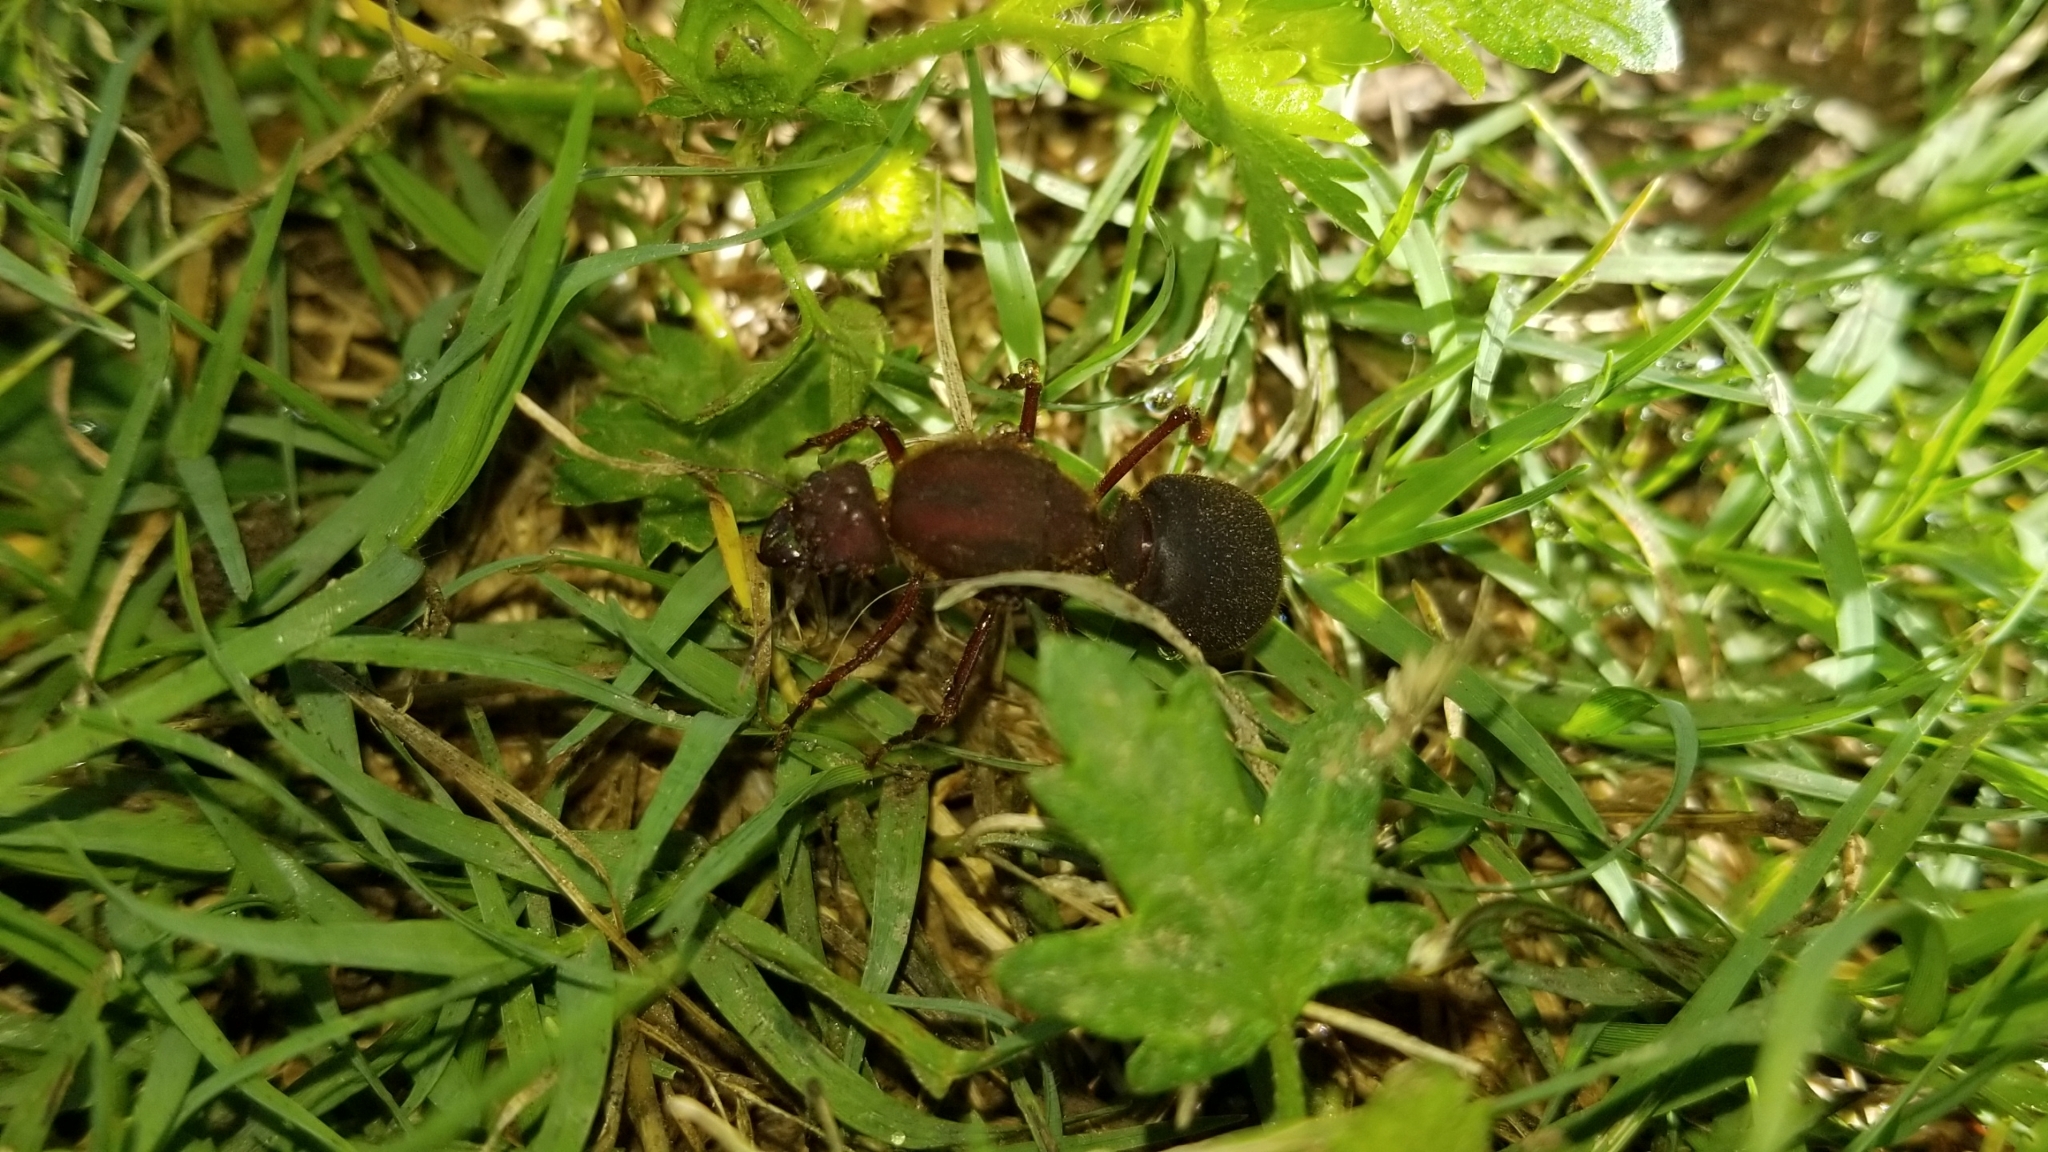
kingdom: Animalia
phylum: Arthropoda
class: Insecta
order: Hymenoptera
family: Formicidae
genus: Atta
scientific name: Atta texana
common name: Texas leafcutting ant
